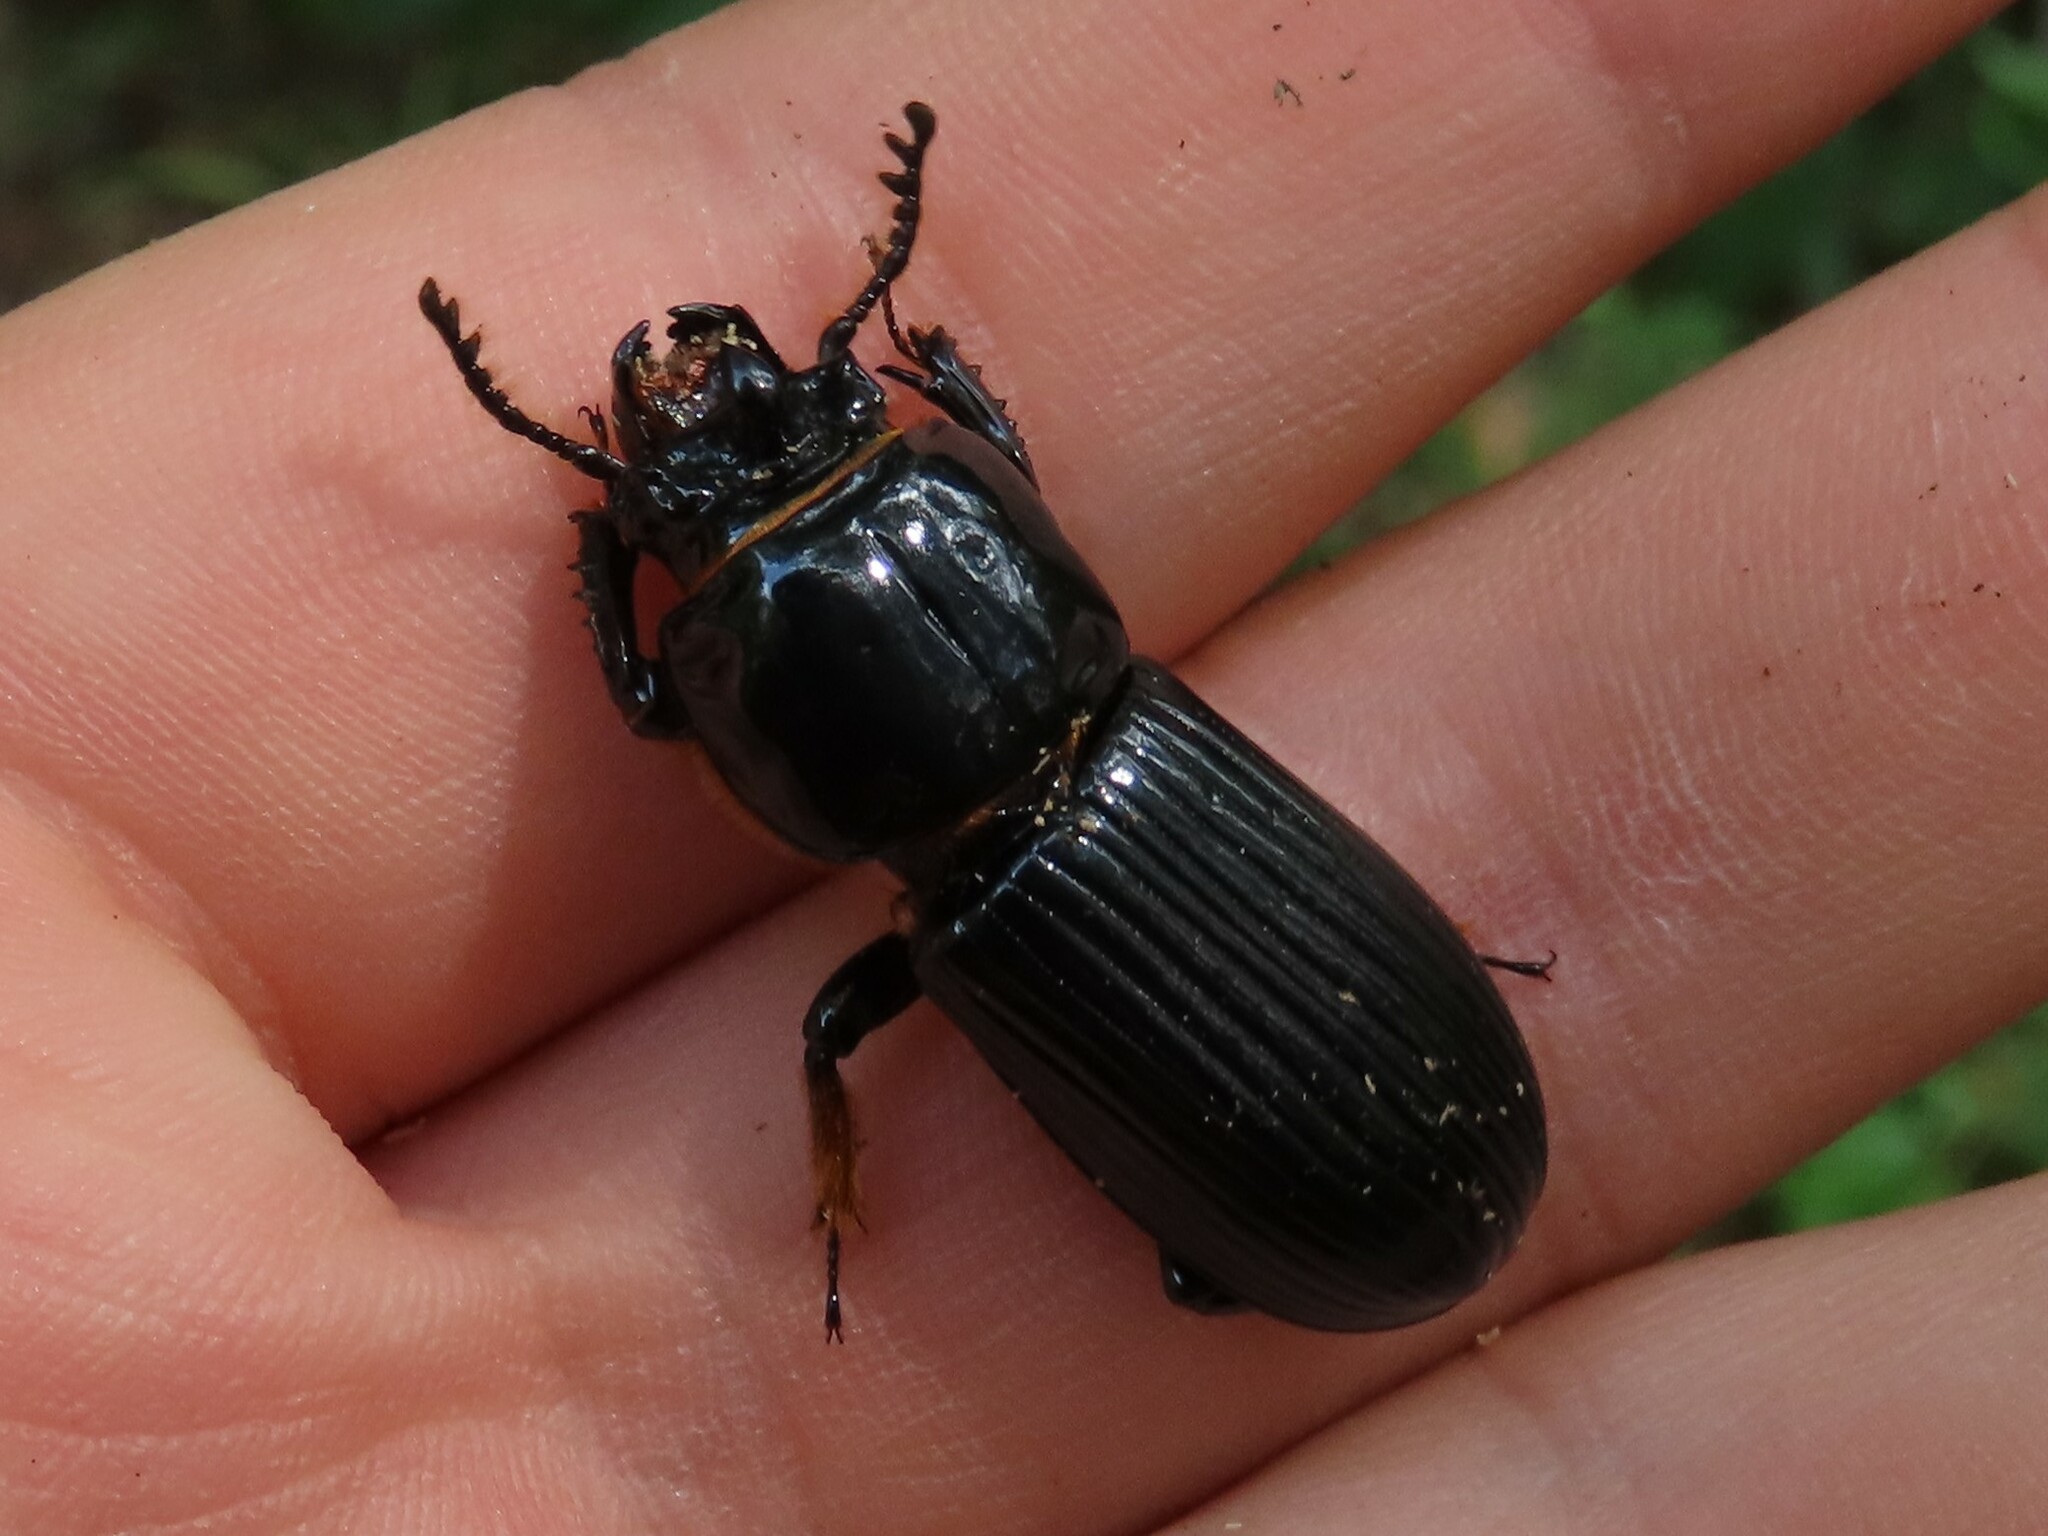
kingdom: Animalia
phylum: Arthropoda
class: Insecta
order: Coleoptera
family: Passalidae
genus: Odontotaenius
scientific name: Odontotaenius disjunctus
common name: Patent leather beetle
